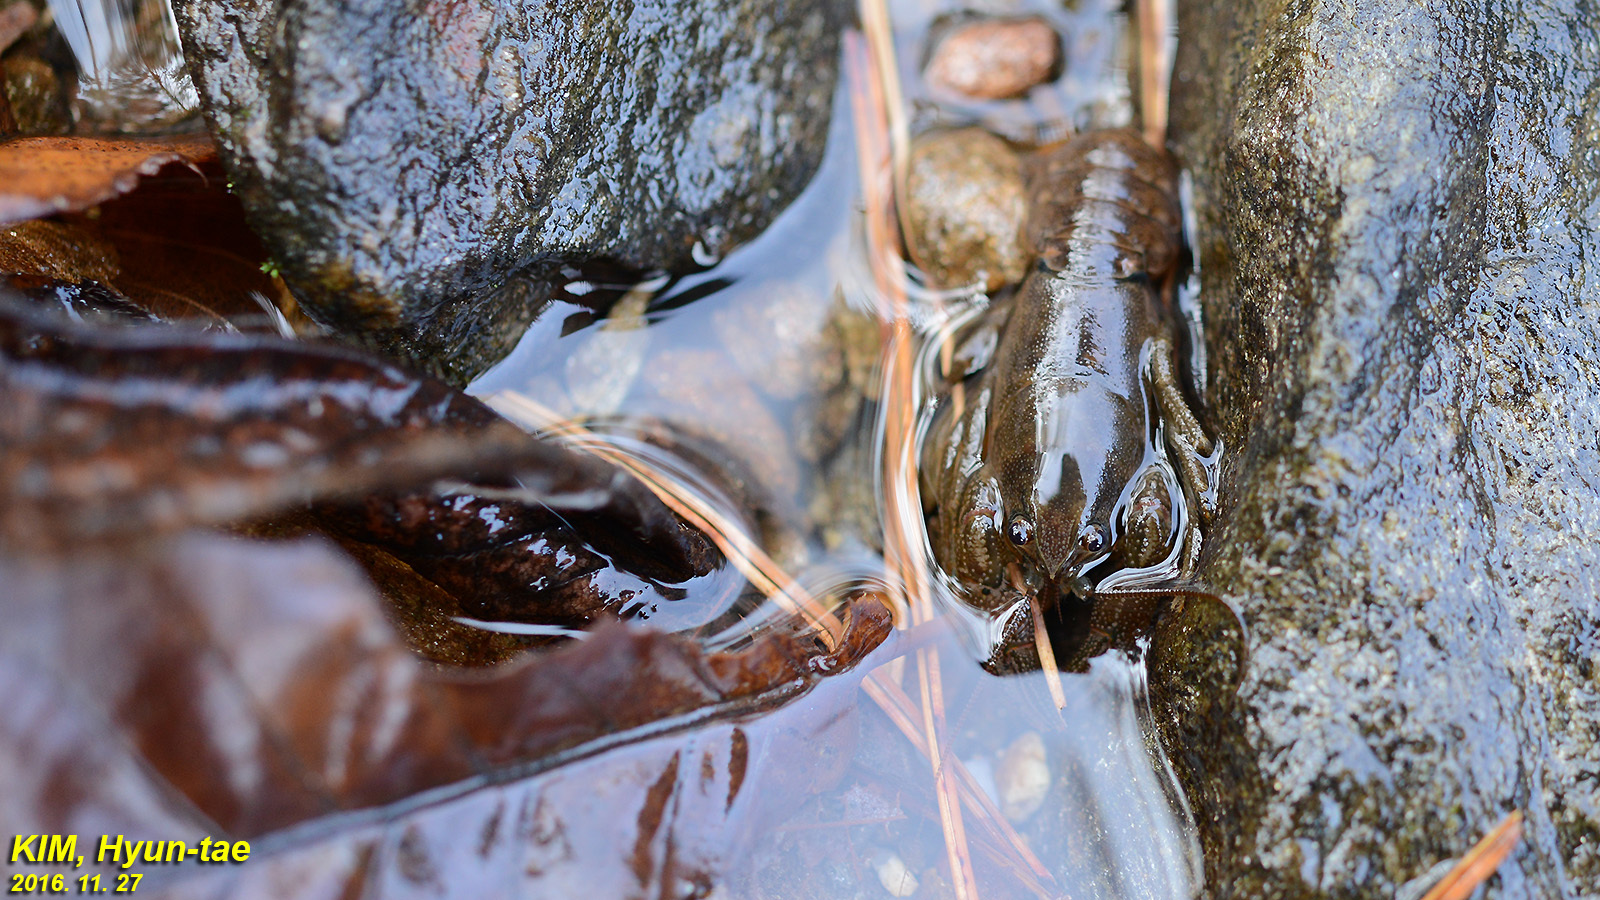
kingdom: Animalia
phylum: Arthropoda
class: Malacostraca
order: Decapoda
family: Cambaroididae
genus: Cambaroides
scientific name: Cambaroides similis
